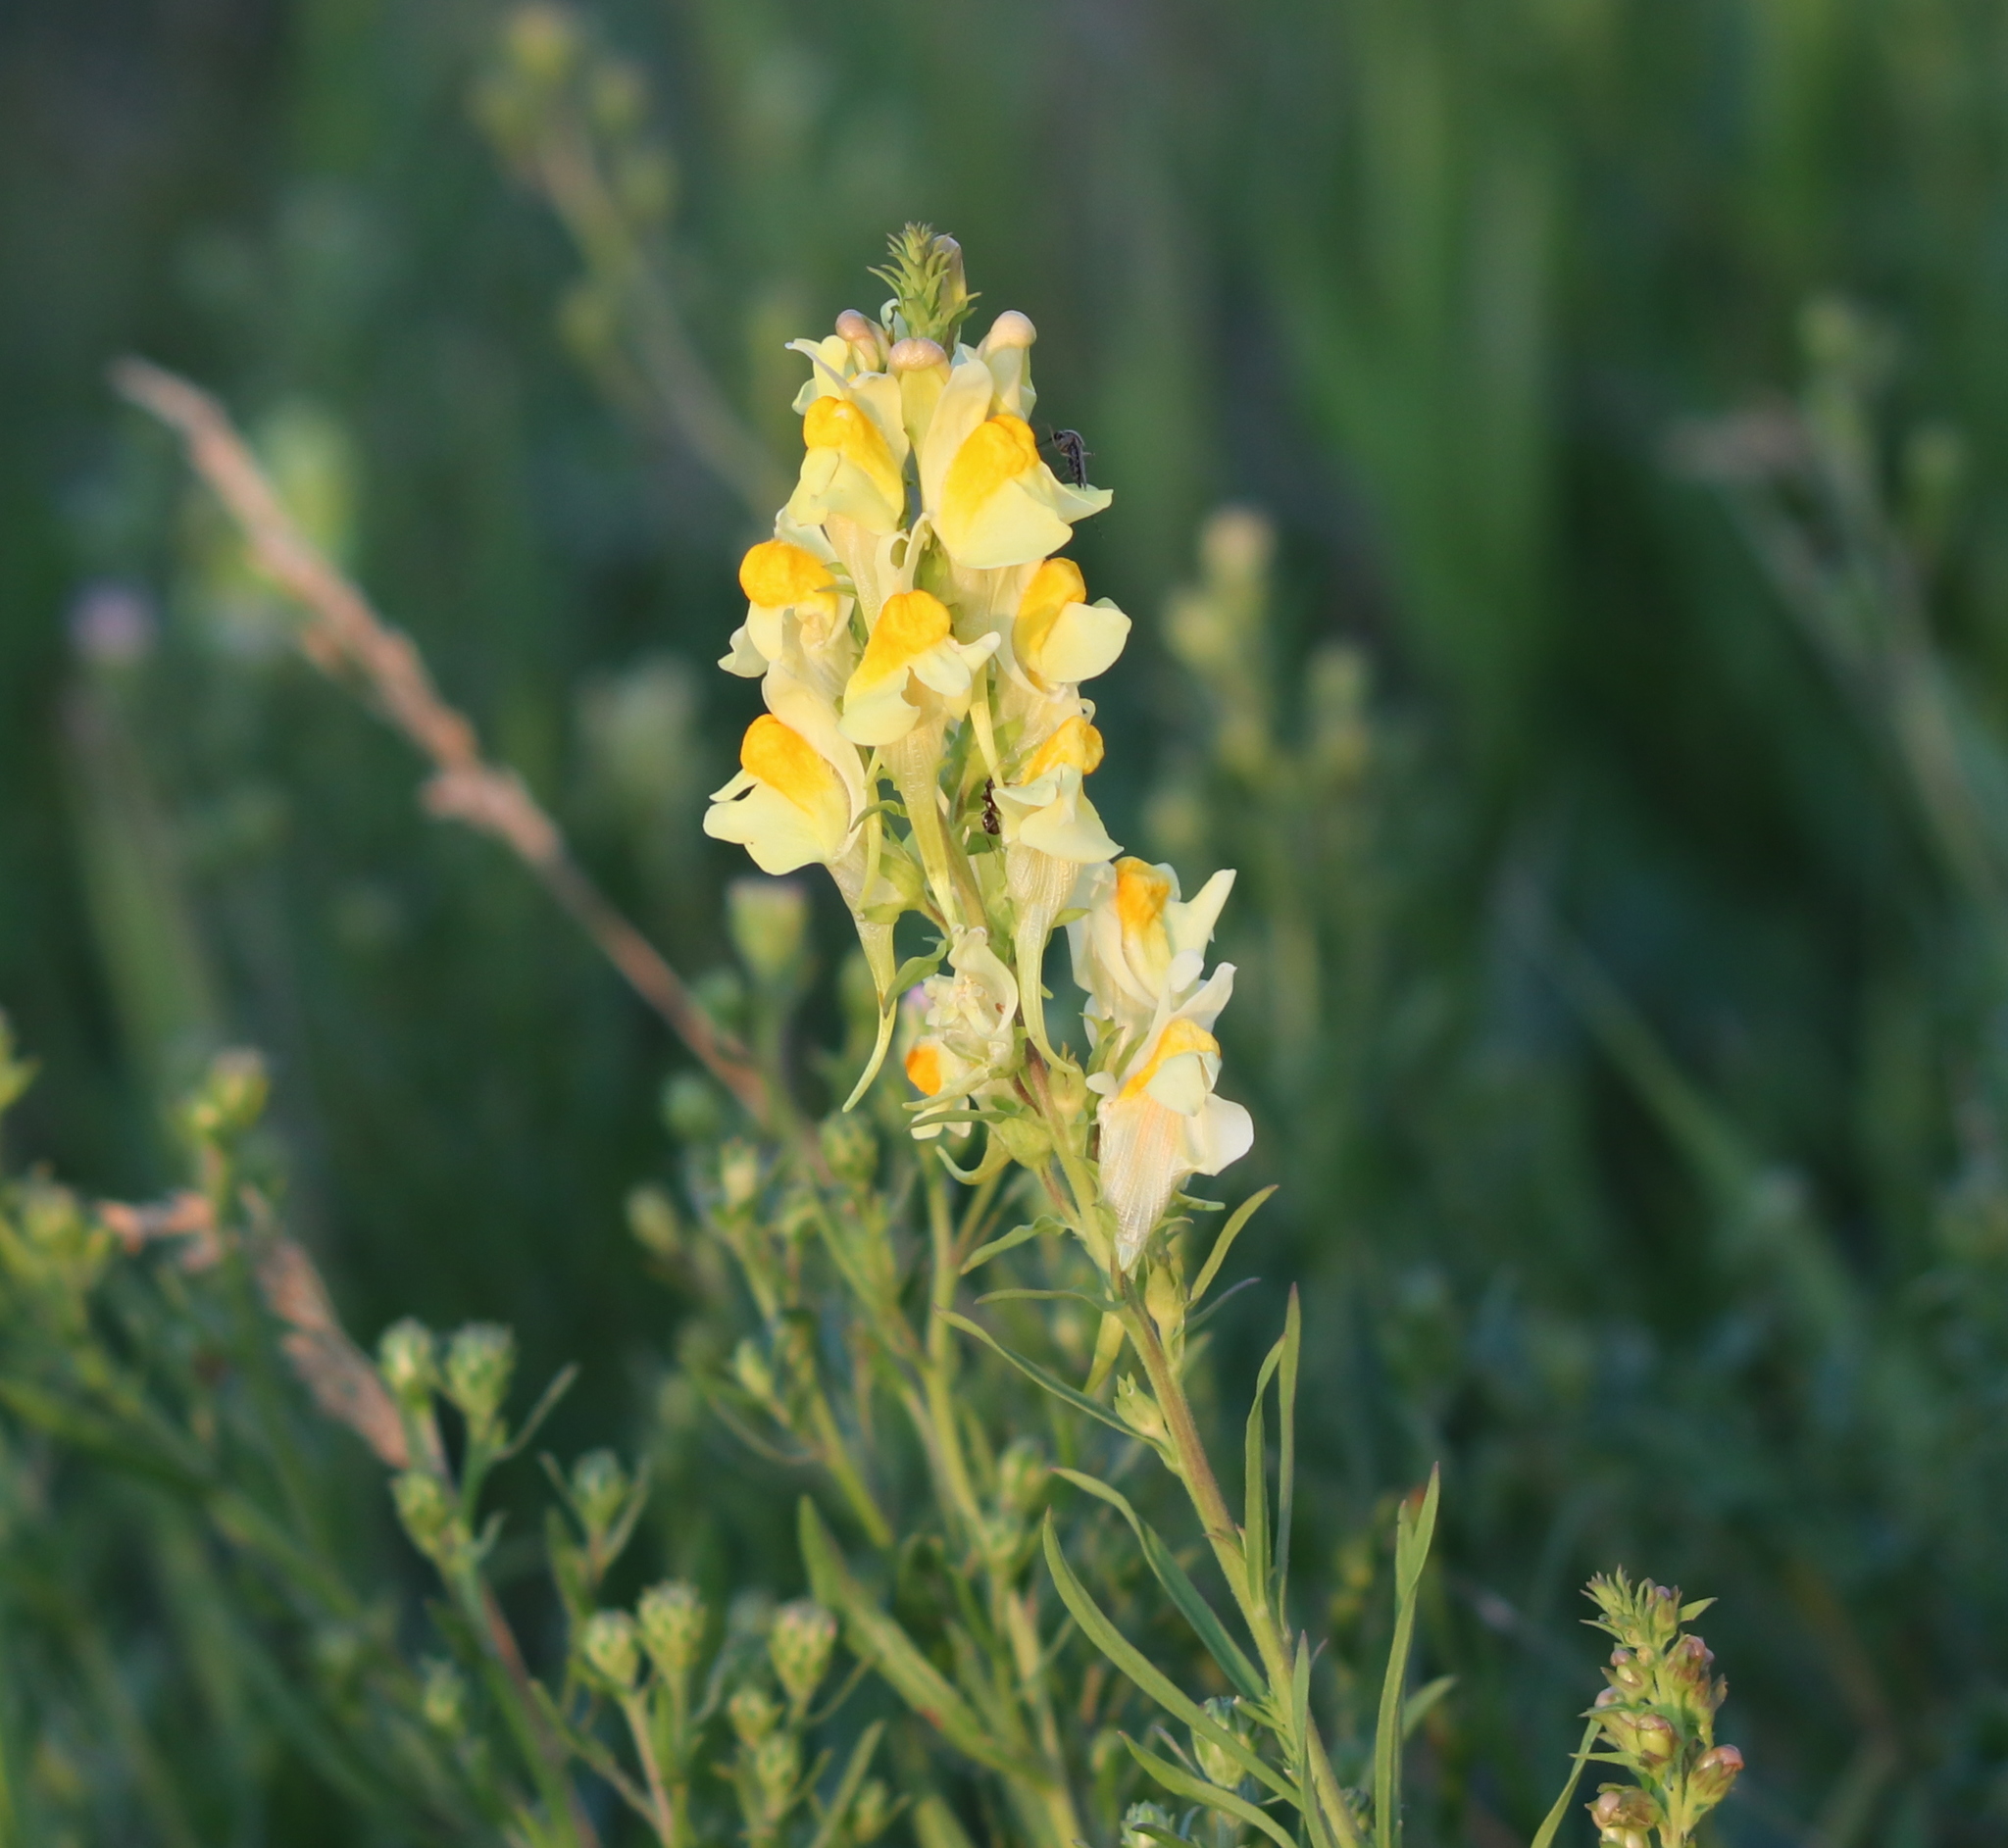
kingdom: Plantae
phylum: Tracheophyta
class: Magnoliopsida
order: Lamiales
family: Plantaginaceae
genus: Linaria
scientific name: Linaria vulgaris
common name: Butter and eggs
